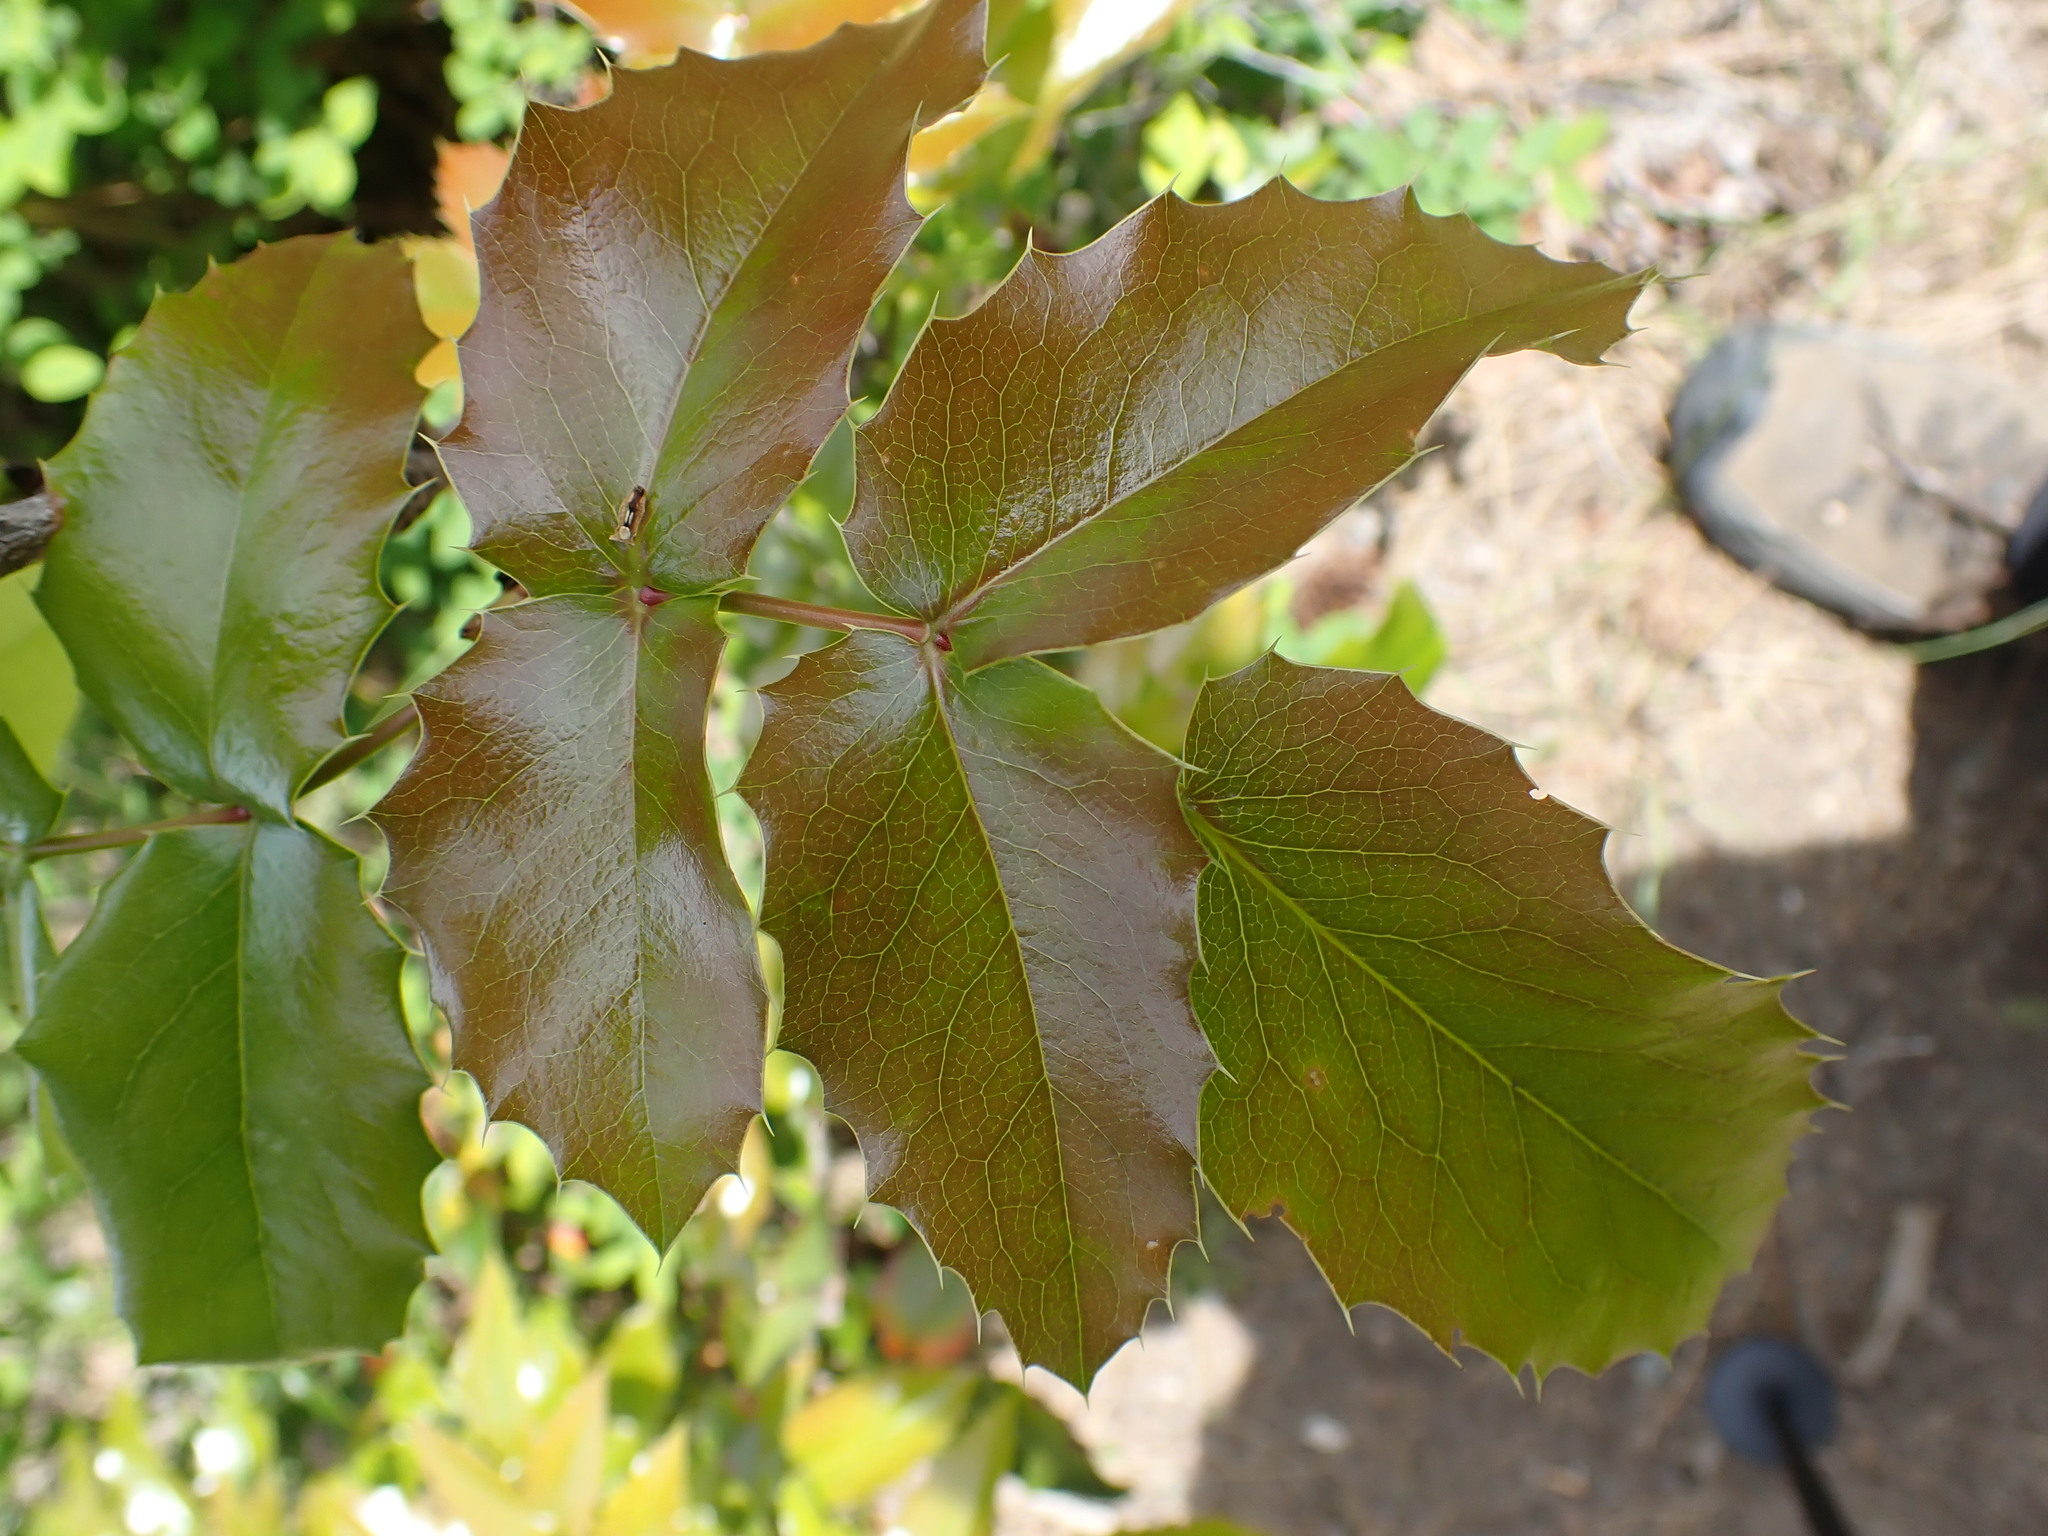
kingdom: Plantae
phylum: Tracheophyta
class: Magnoliopsida
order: Ranunculales
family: Berberidaceae
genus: Mahonia
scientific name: Mahonia aquifolium
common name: Oregon-grape
